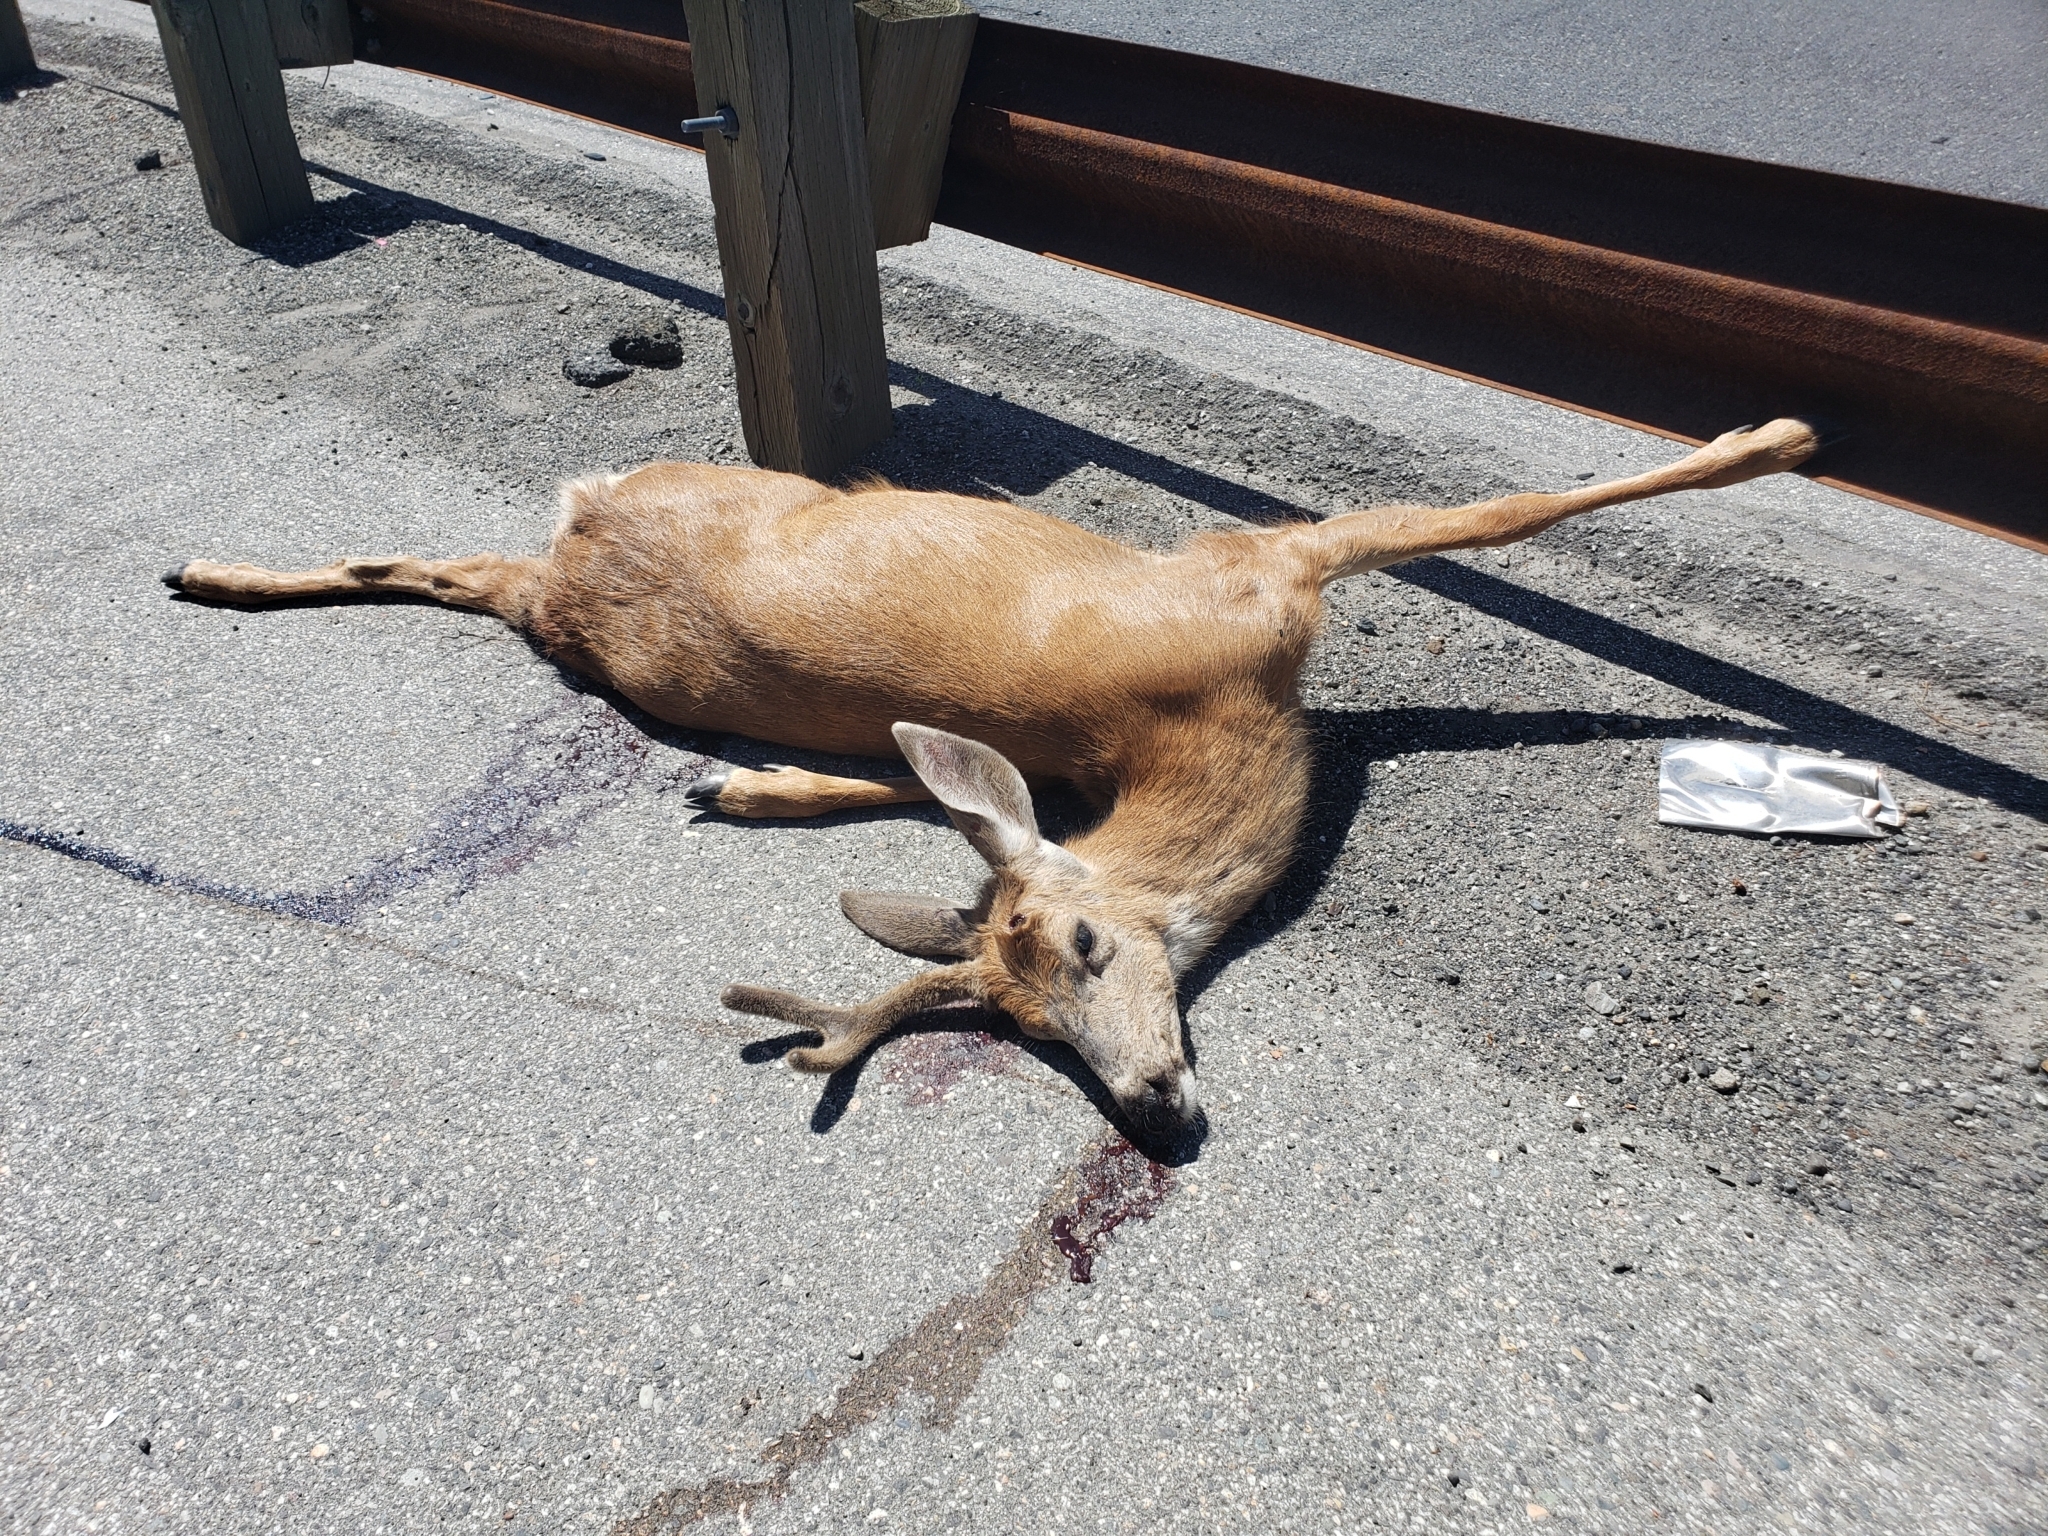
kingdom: Animalia
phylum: Chordata
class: Mammalia
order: Artiodactyla
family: Cervidae
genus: Odocoileus
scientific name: Odocoileus hemionus
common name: Mule deer
